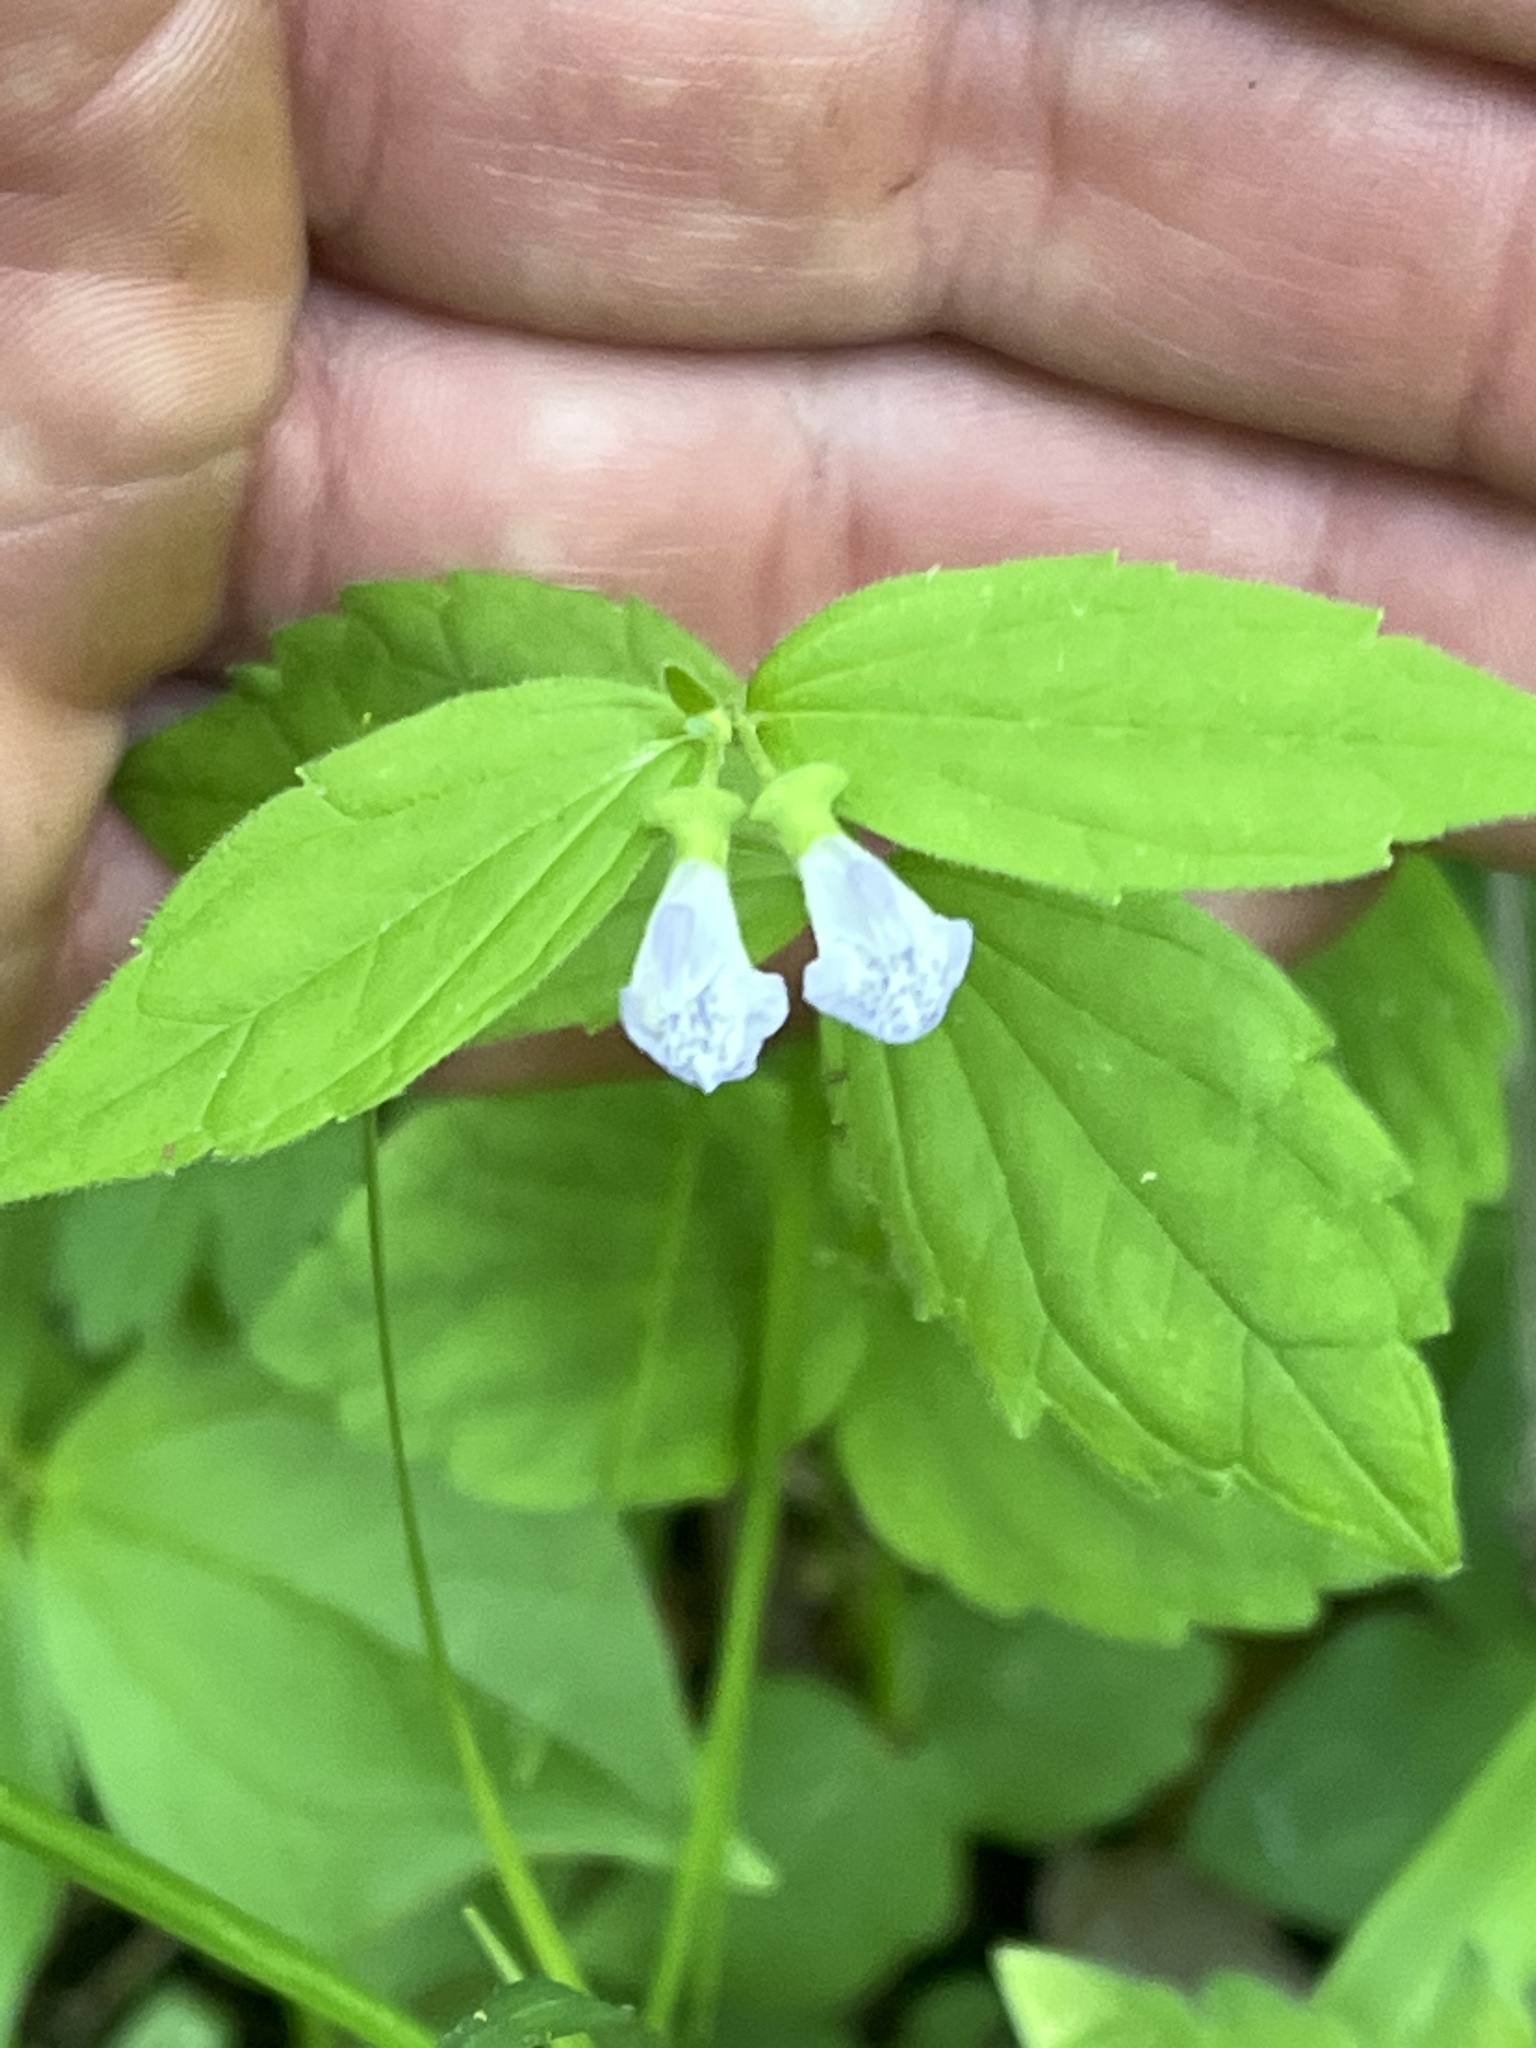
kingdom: Plantae
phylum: Tracheophyta
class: Magnoliopsida
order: Lamiales
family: Lamiaceae
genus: Scutellaria
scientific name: Scutellaria nervosa
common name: Bottomland skullcap
